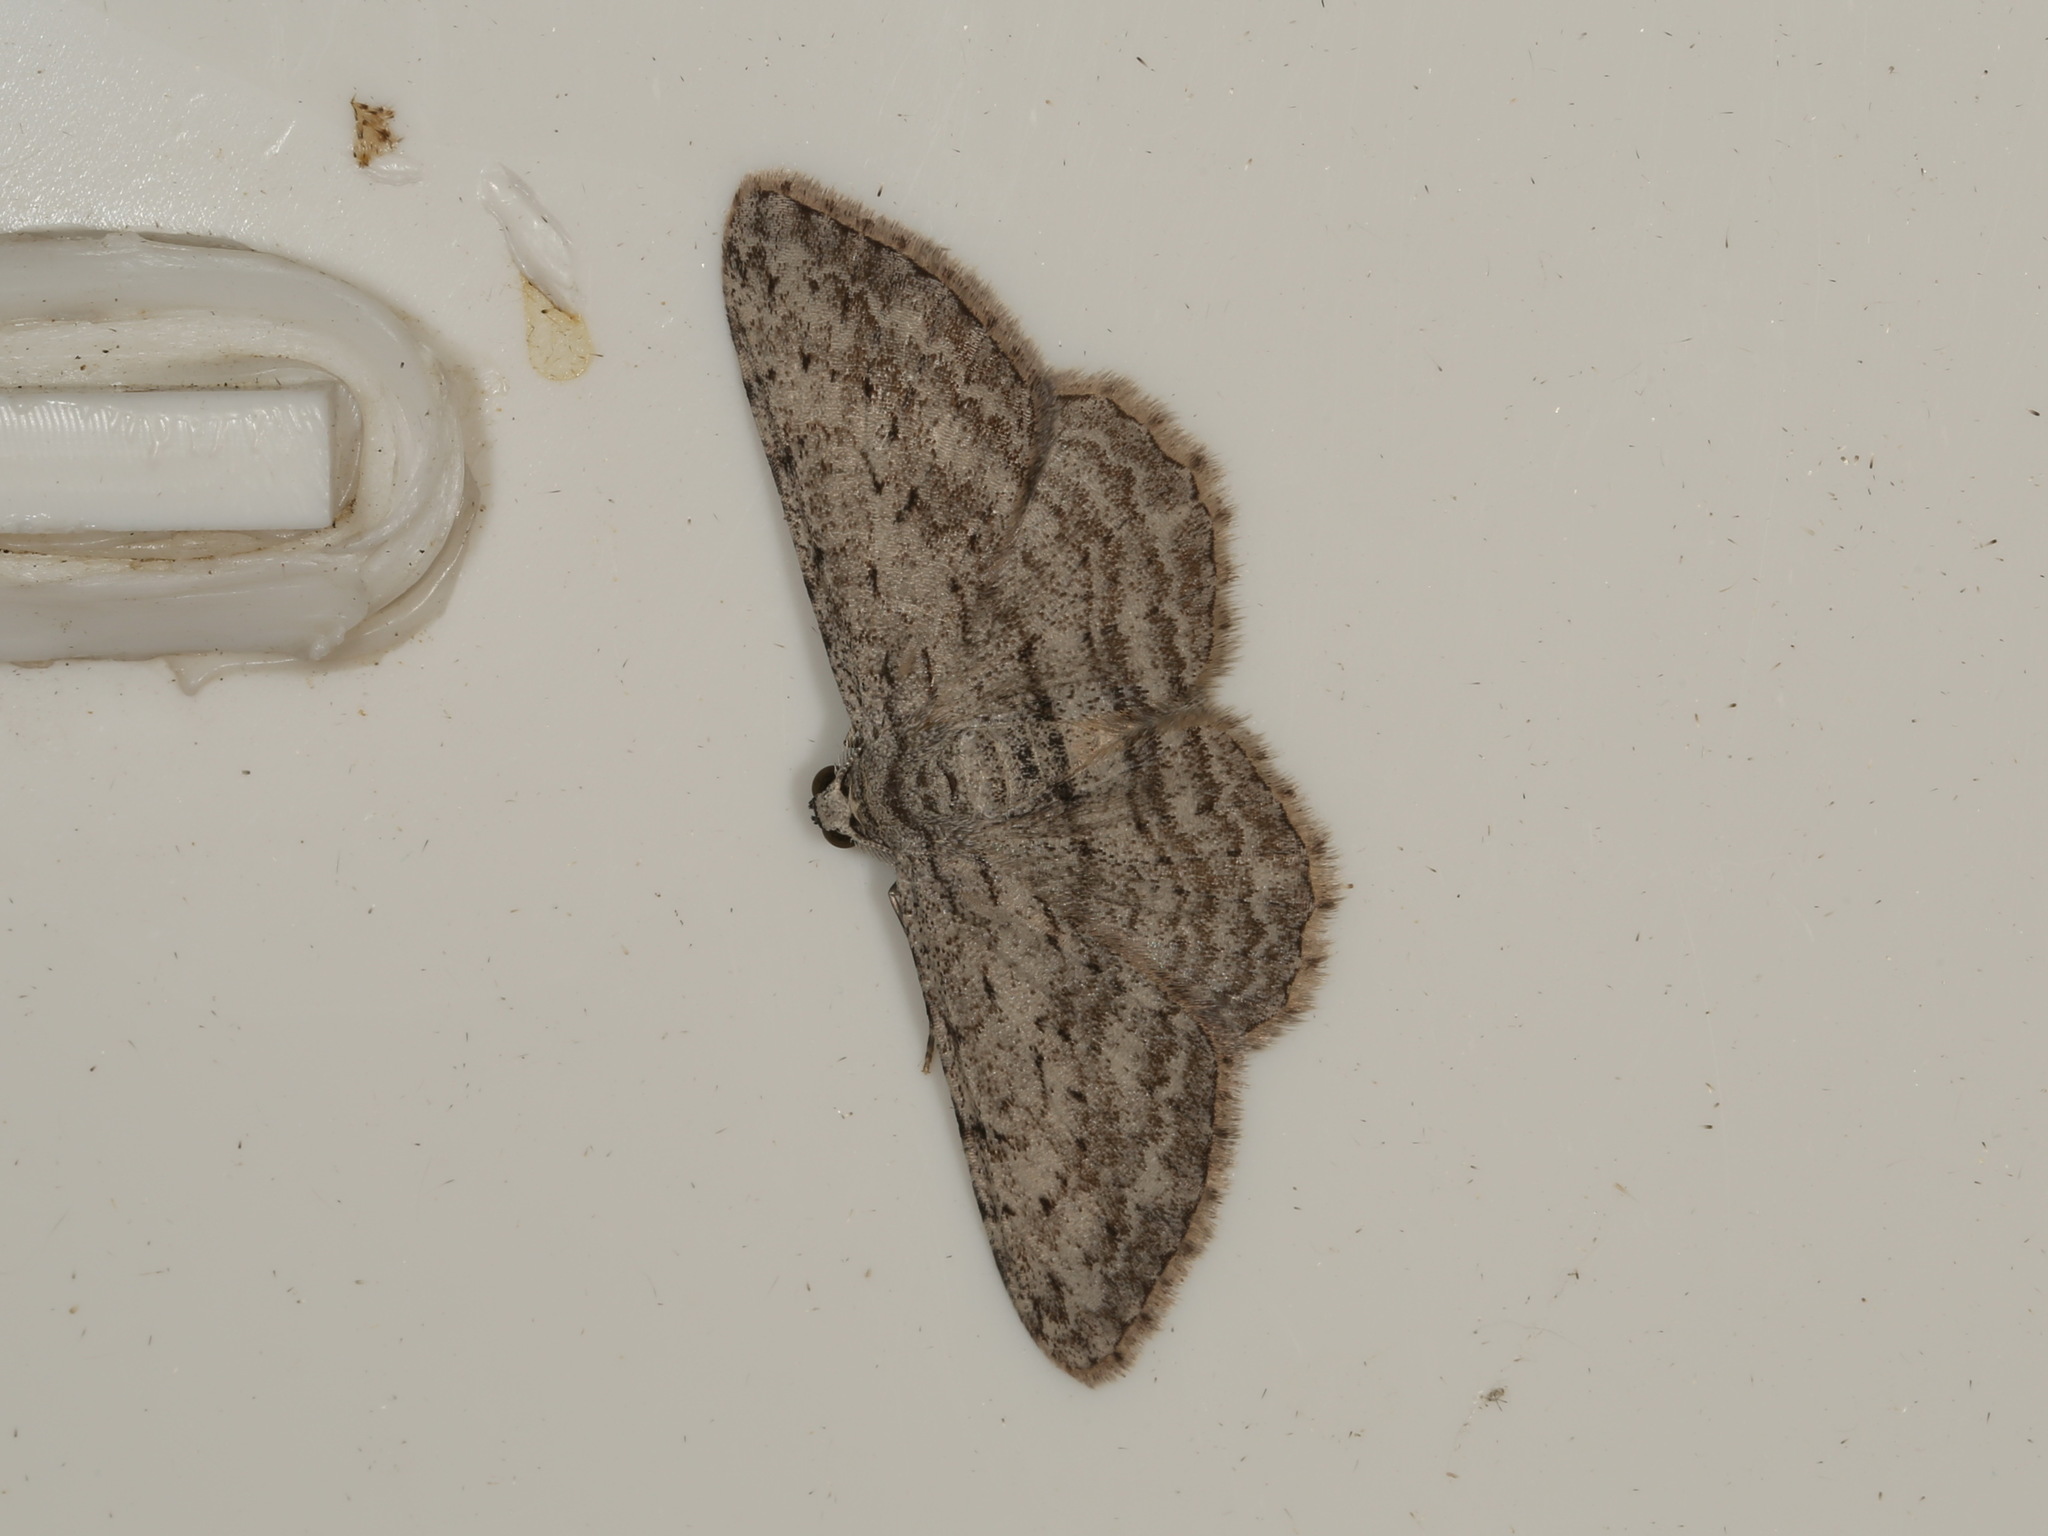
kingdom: Animalia
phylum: Arthropoda
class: Insecta
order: Lepidoptera
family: Geometridae
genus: Phelotis
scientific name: Phelotis cognata
